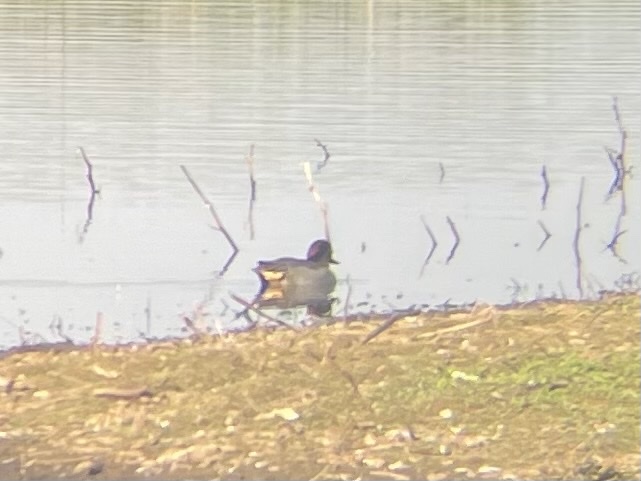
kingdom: Animalia
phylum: Chordata
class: Aves
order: Anseriformes
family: Anatidae
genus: Anas
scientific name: Anas crecca
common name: Eurasian teal
